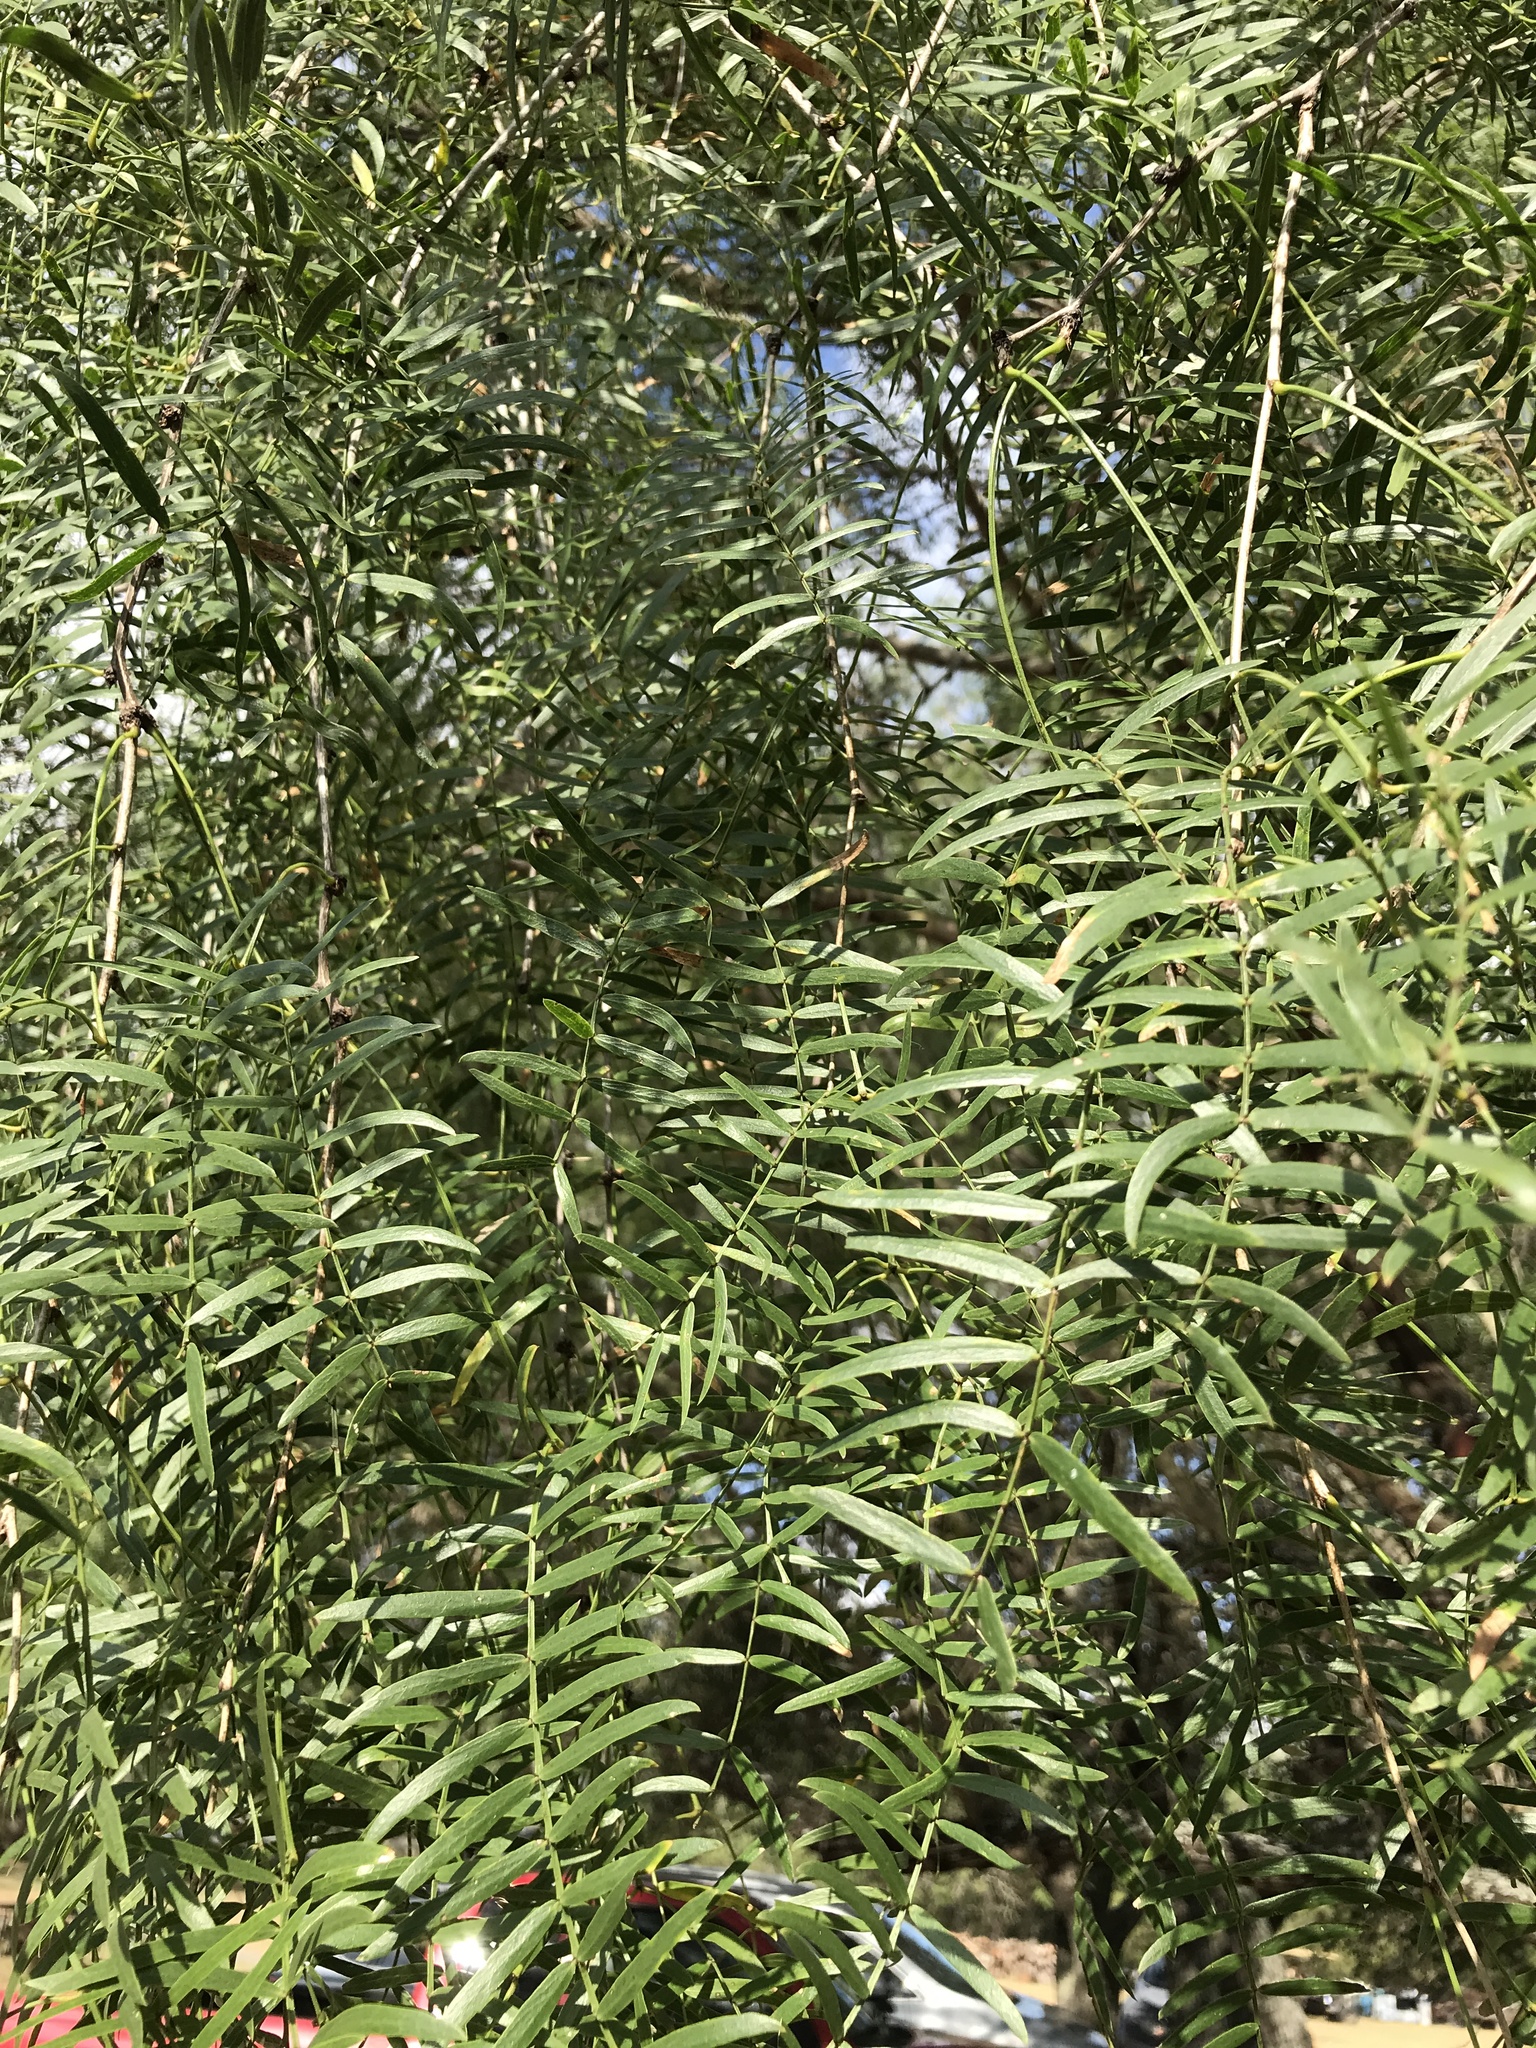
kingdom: Plantae
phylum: Tracheophyta
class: Magnoliopsida
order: Fabales
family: Fabaceae
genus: Prosopis
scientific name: Prosopis glandulosa
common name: Honey mesquite
